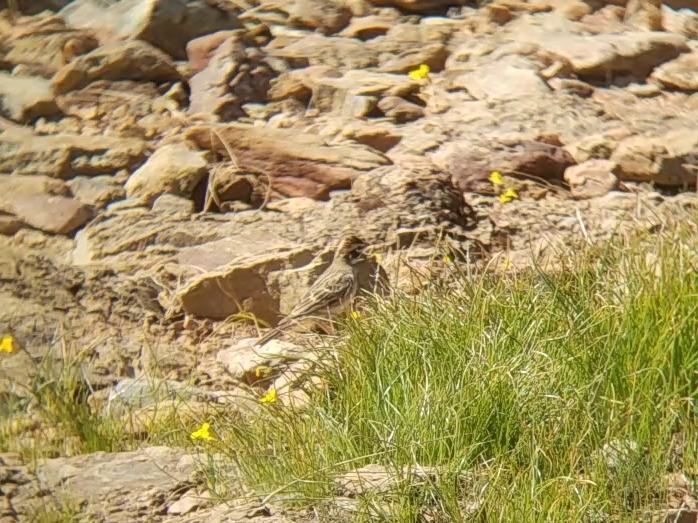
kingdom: Animalia
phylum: Chordata
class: Aves
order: Passeriformes
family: Passerellidae
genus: Chondestes
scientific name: Chondestes grammacus
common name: Lark sparrow
